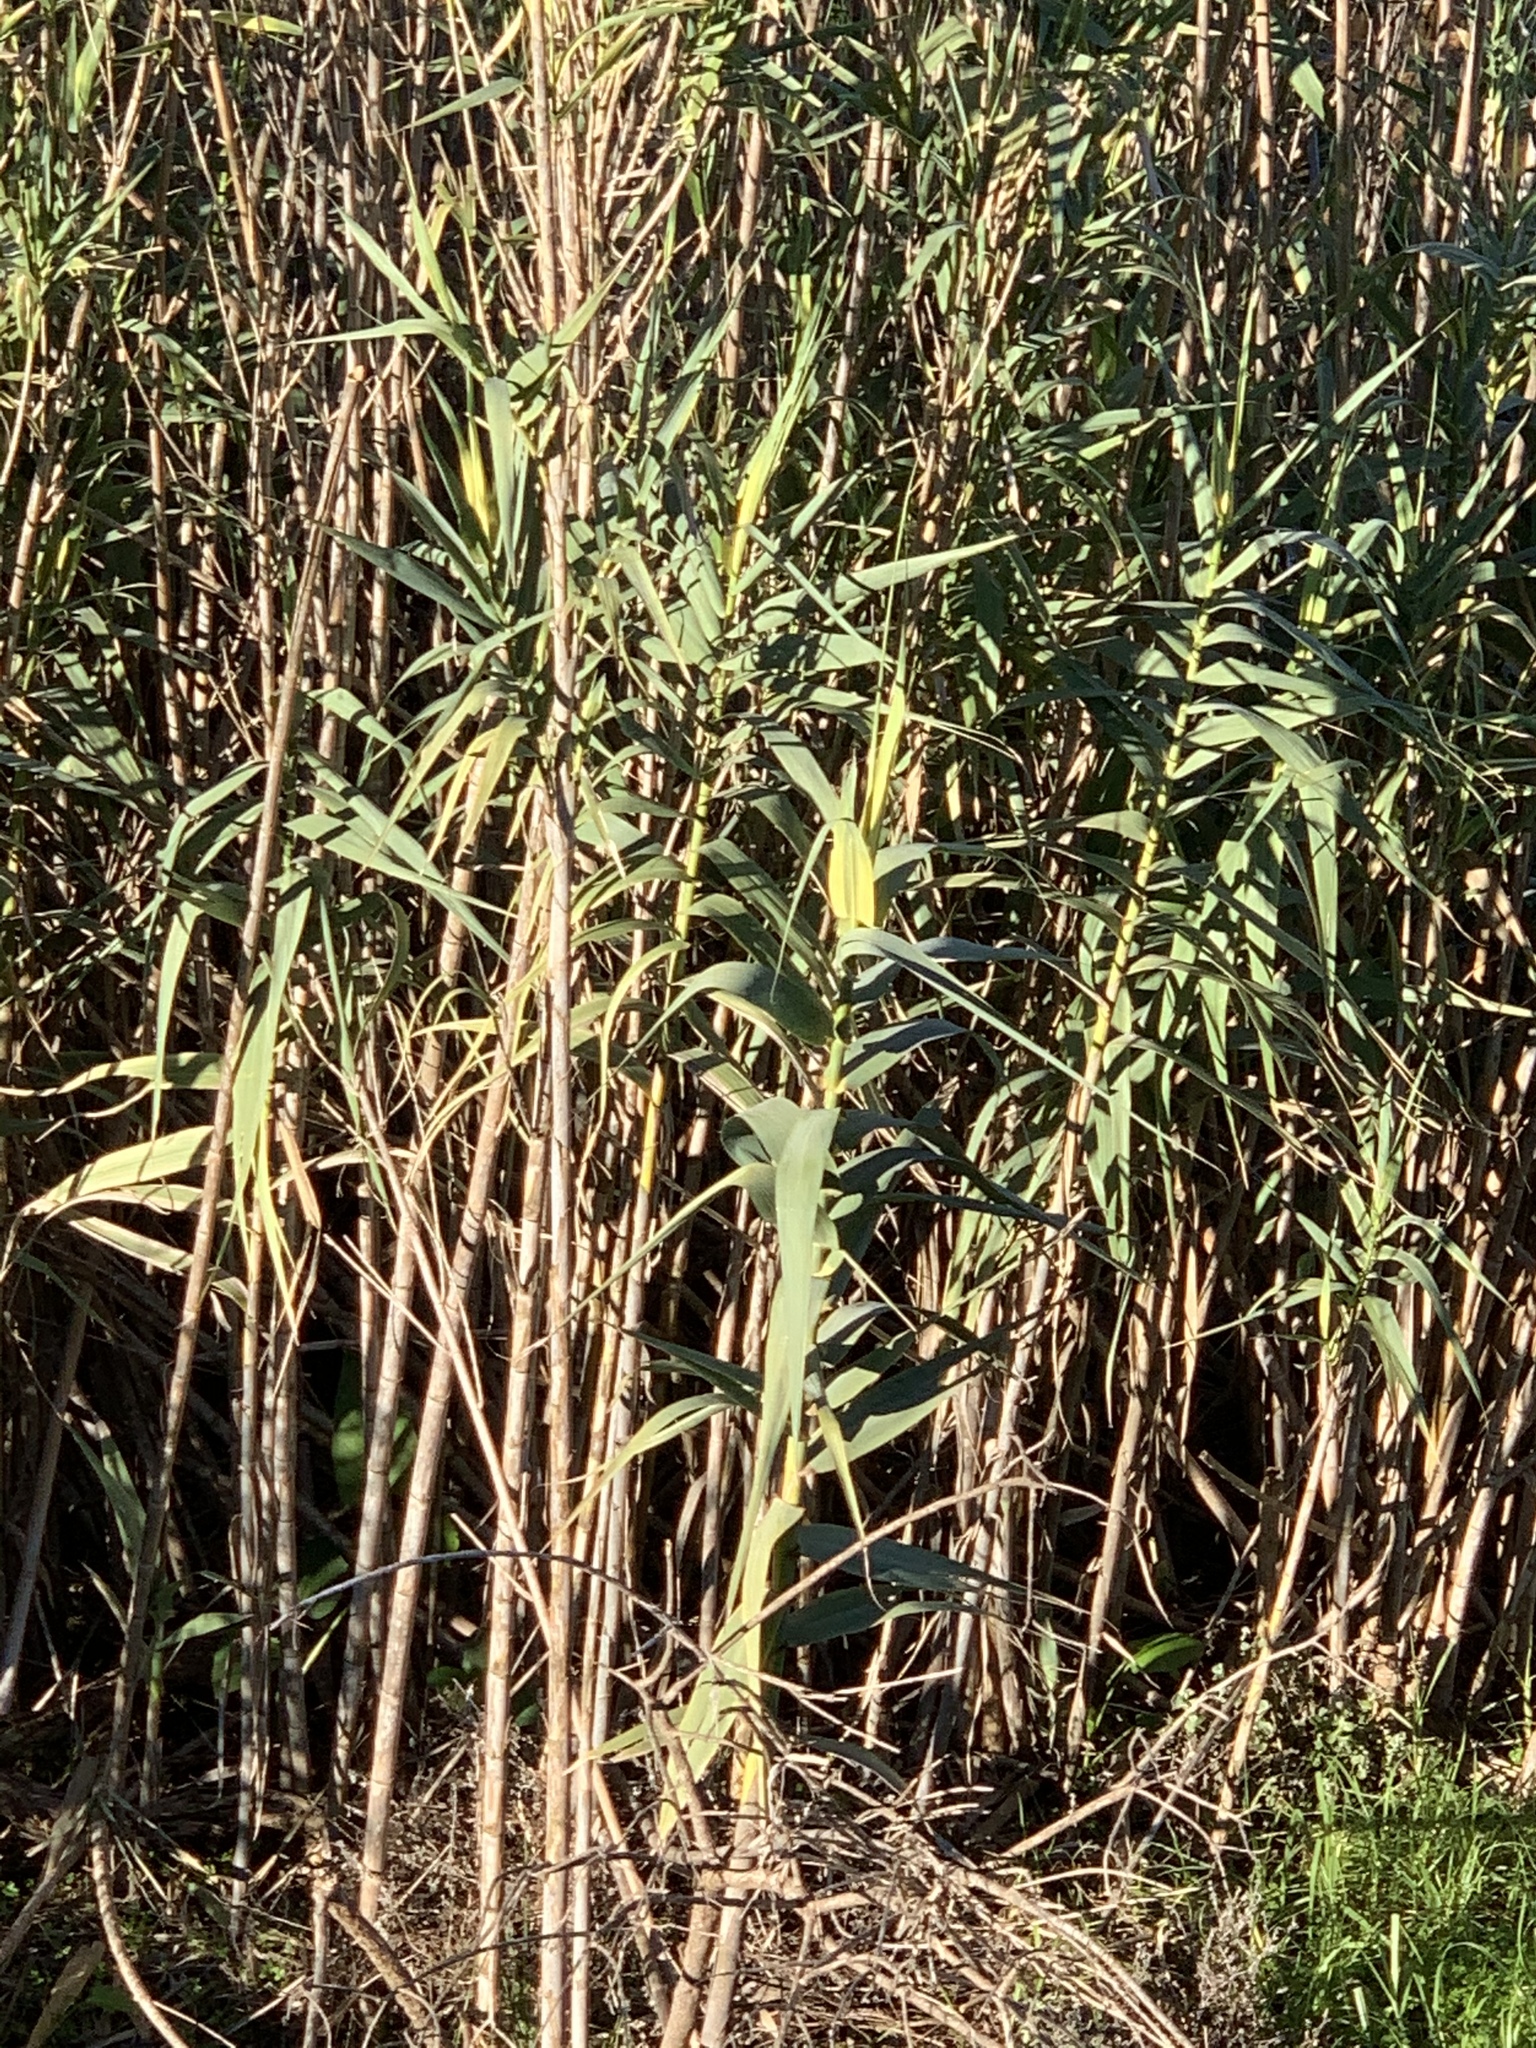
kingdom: Plantae
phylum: Tracheophyta
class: Liliopsida
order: Poales
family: Poaceae
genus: Arundo
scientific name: Arundo donax
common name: Giant reed
